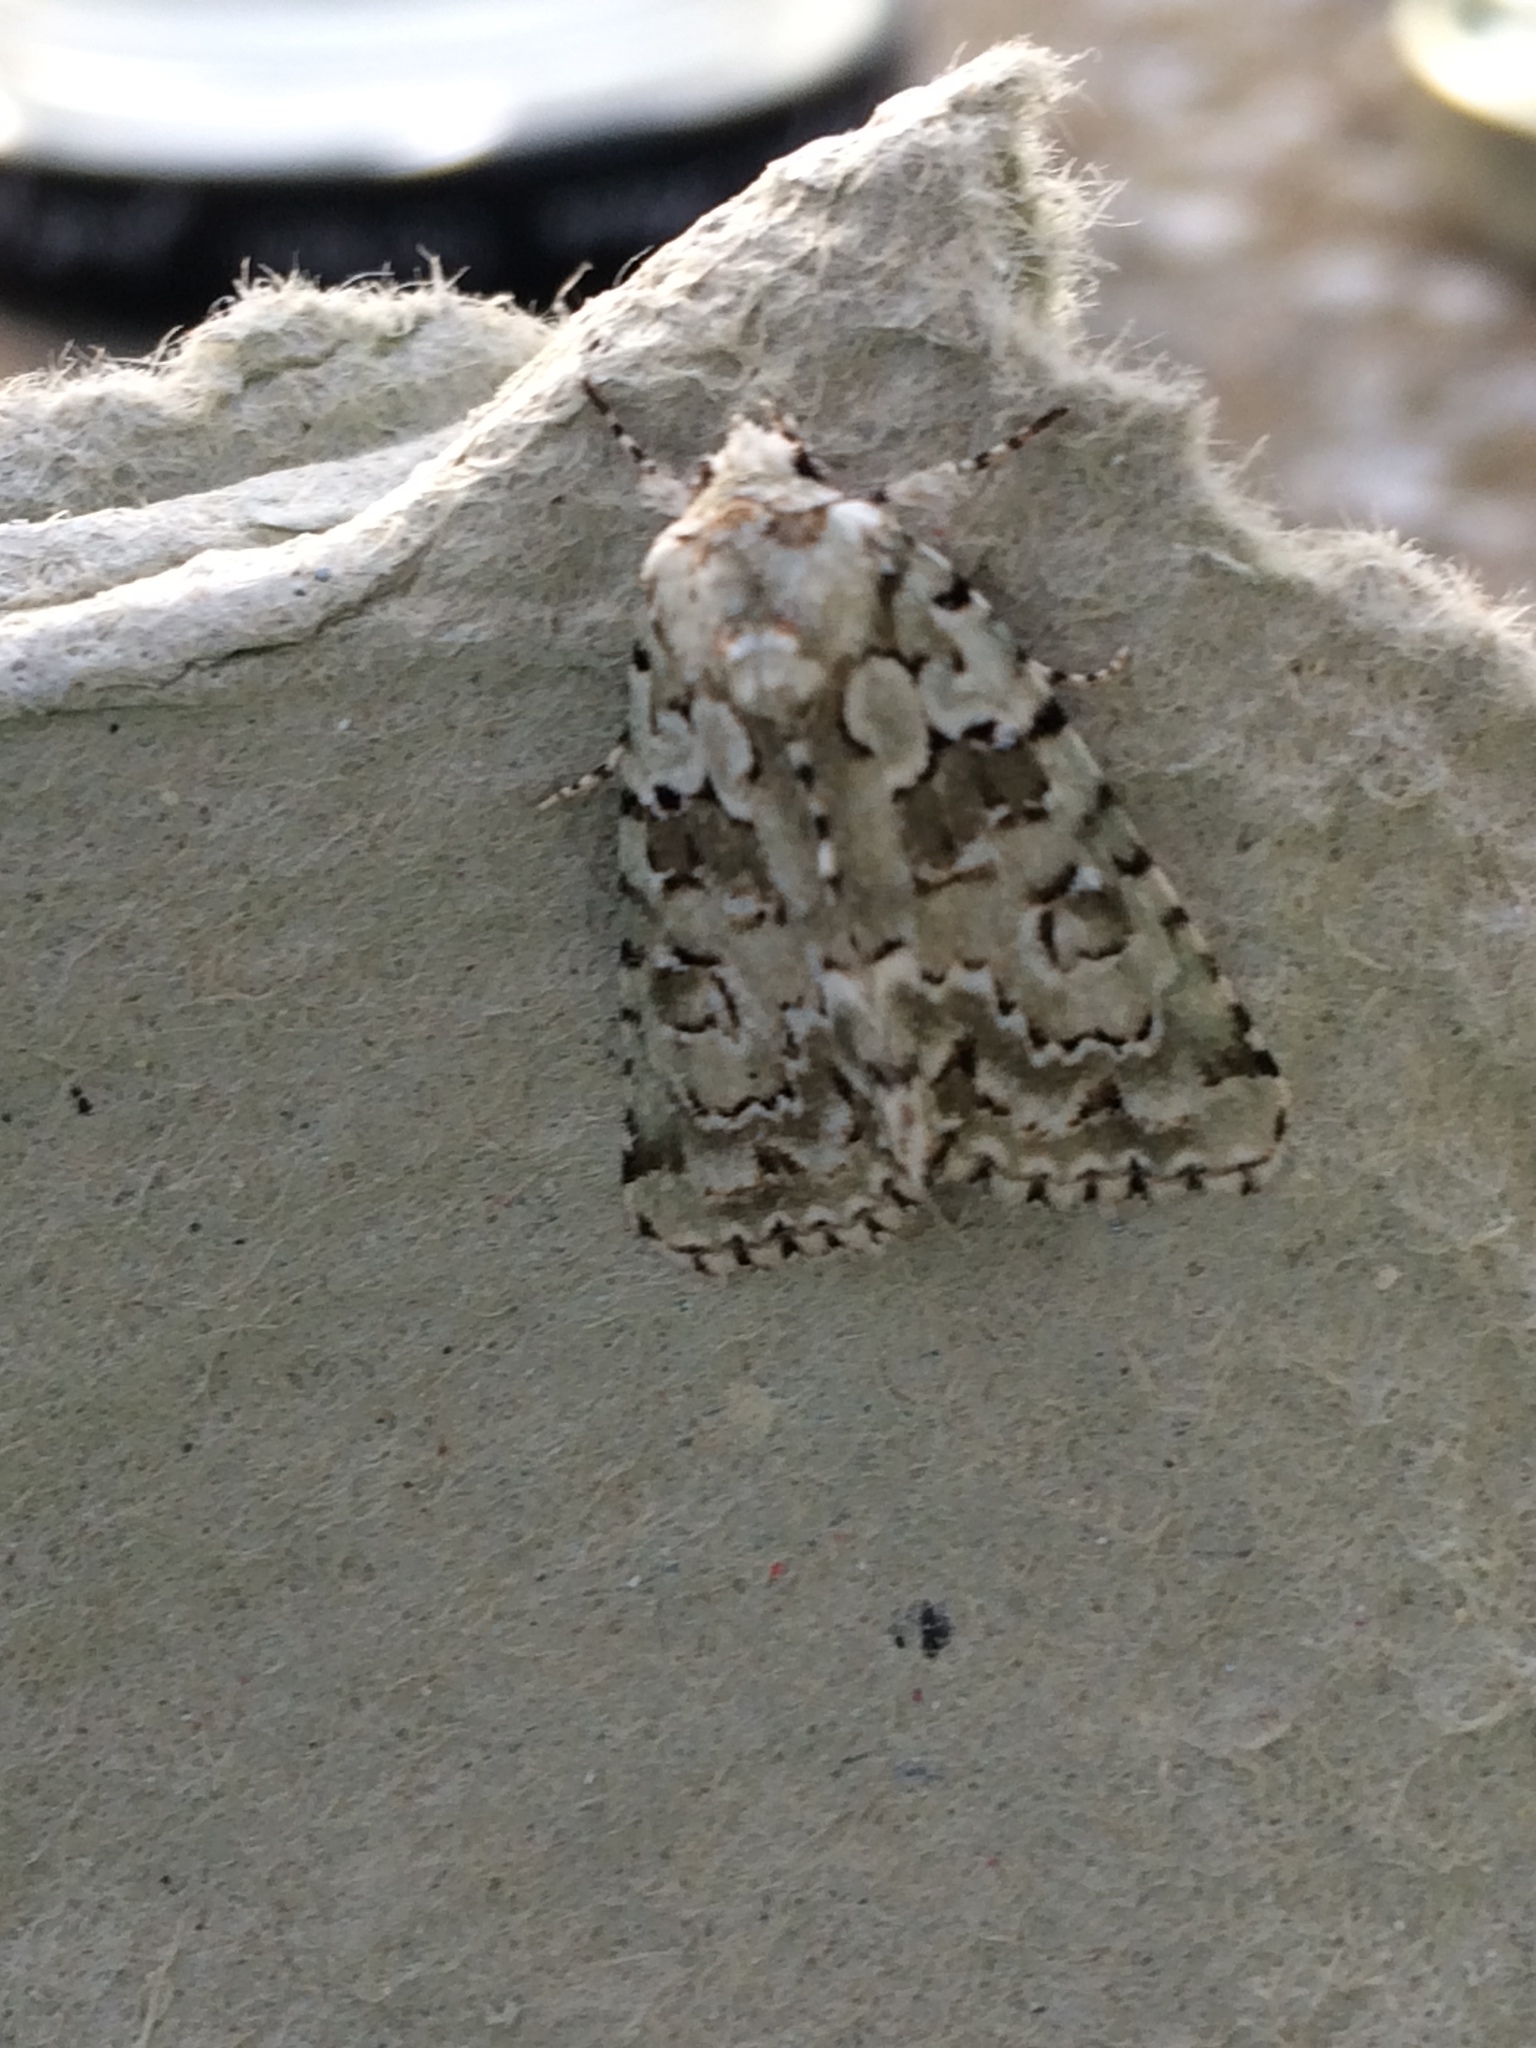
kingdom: Animalia
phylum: Arthropoda
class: Insecta
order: Lepidoptera
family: Noctuidae
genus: Nyctobrya
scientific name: Nyctobrya muralis
